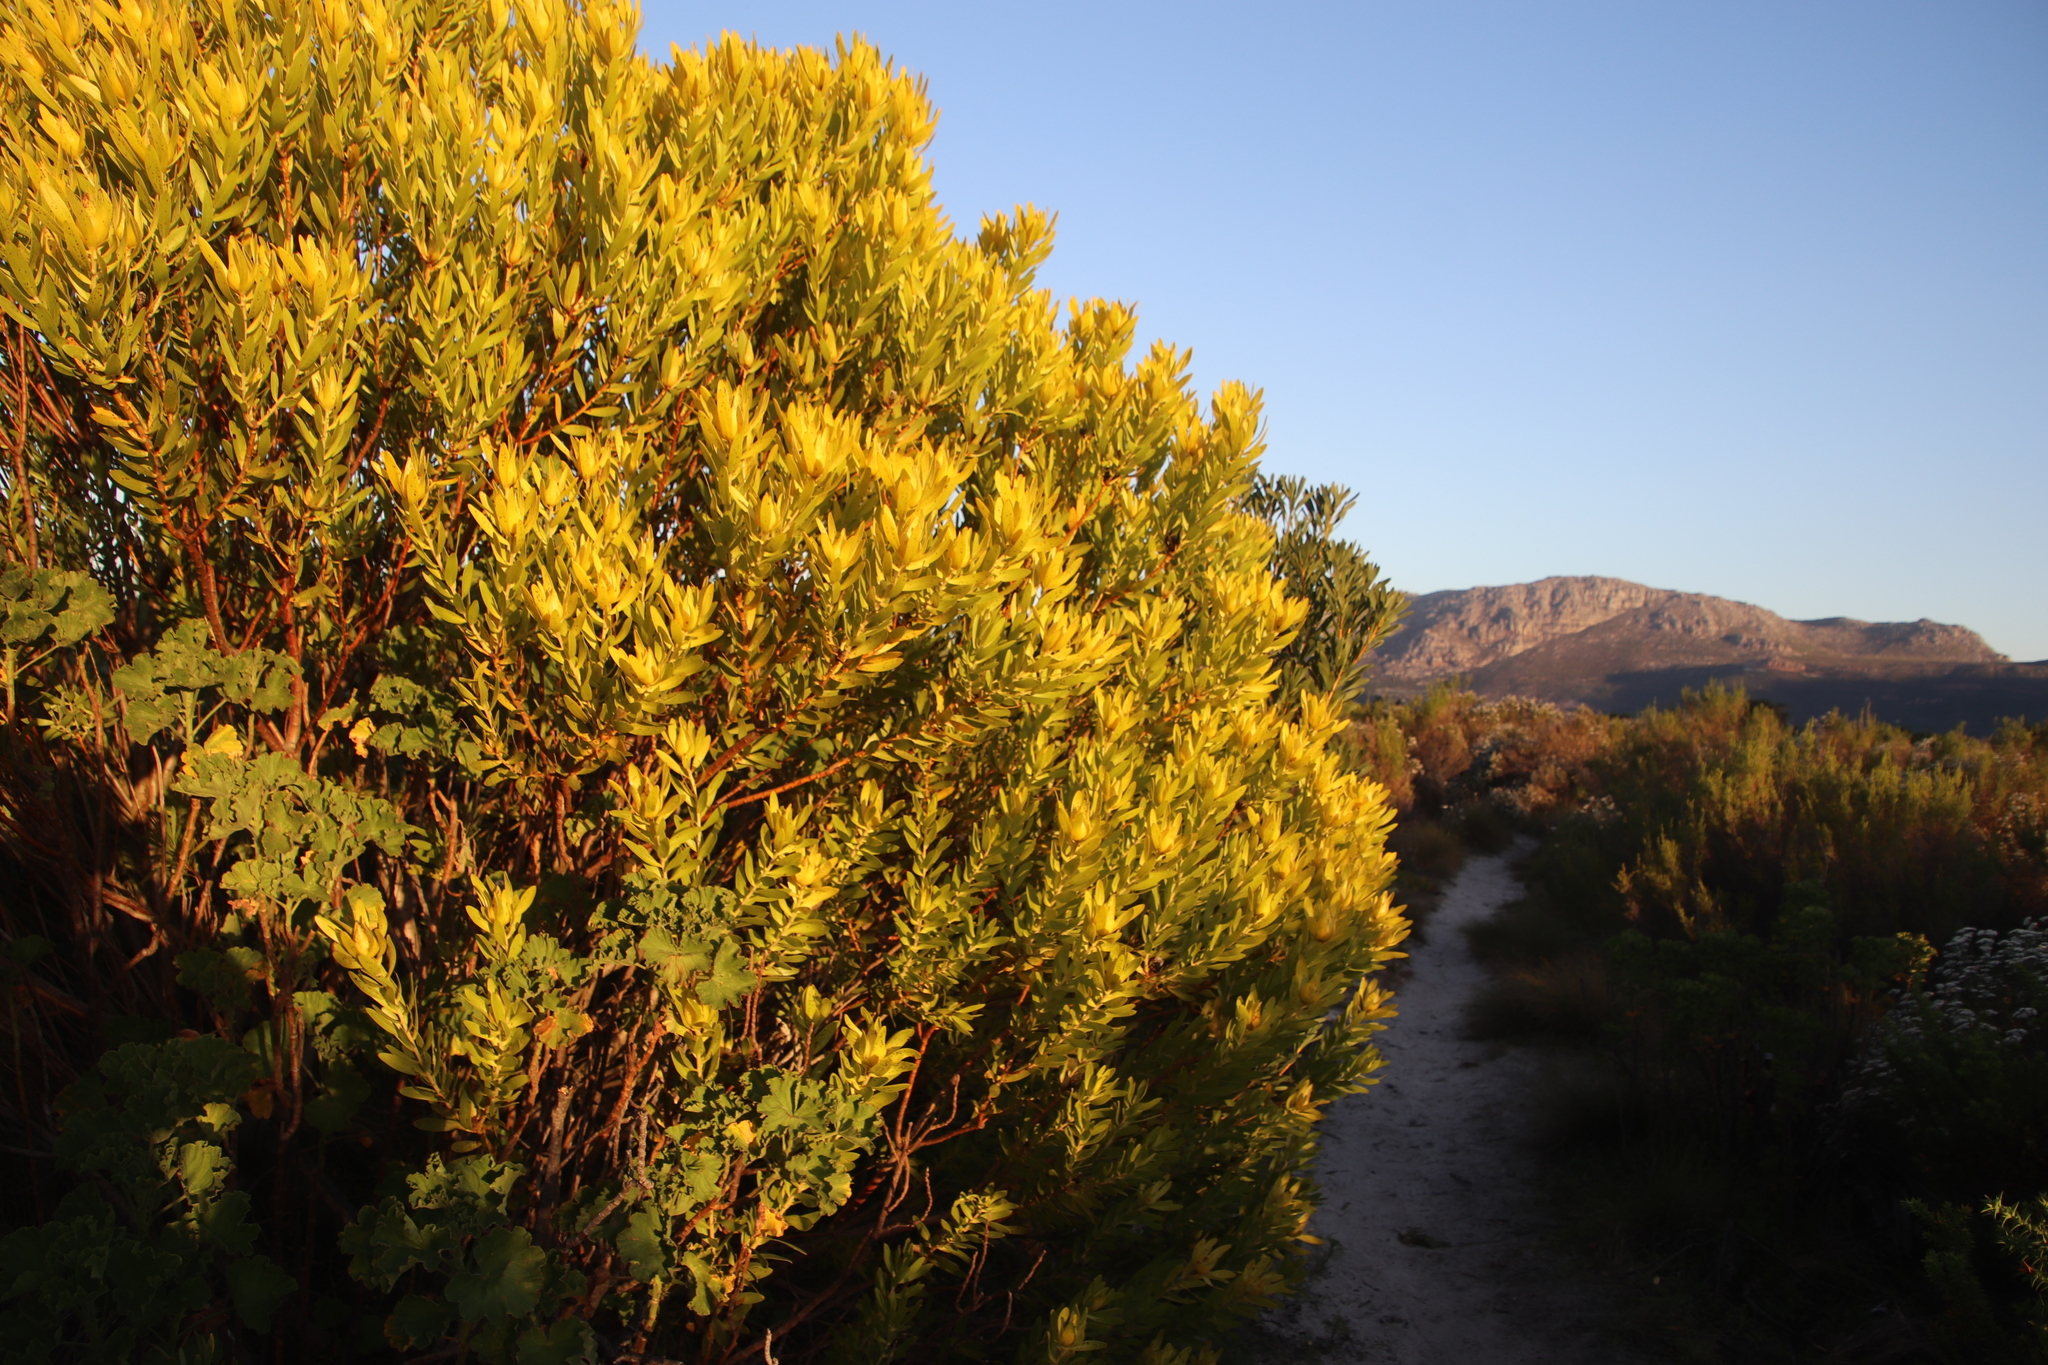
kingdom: Plantae
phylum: Tracheophyta
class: Magnoliopsida
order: Proteales
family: Proteaceae
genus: Leucadendron
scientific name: Leucadendron laureolum
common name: Golden sunshinebush
